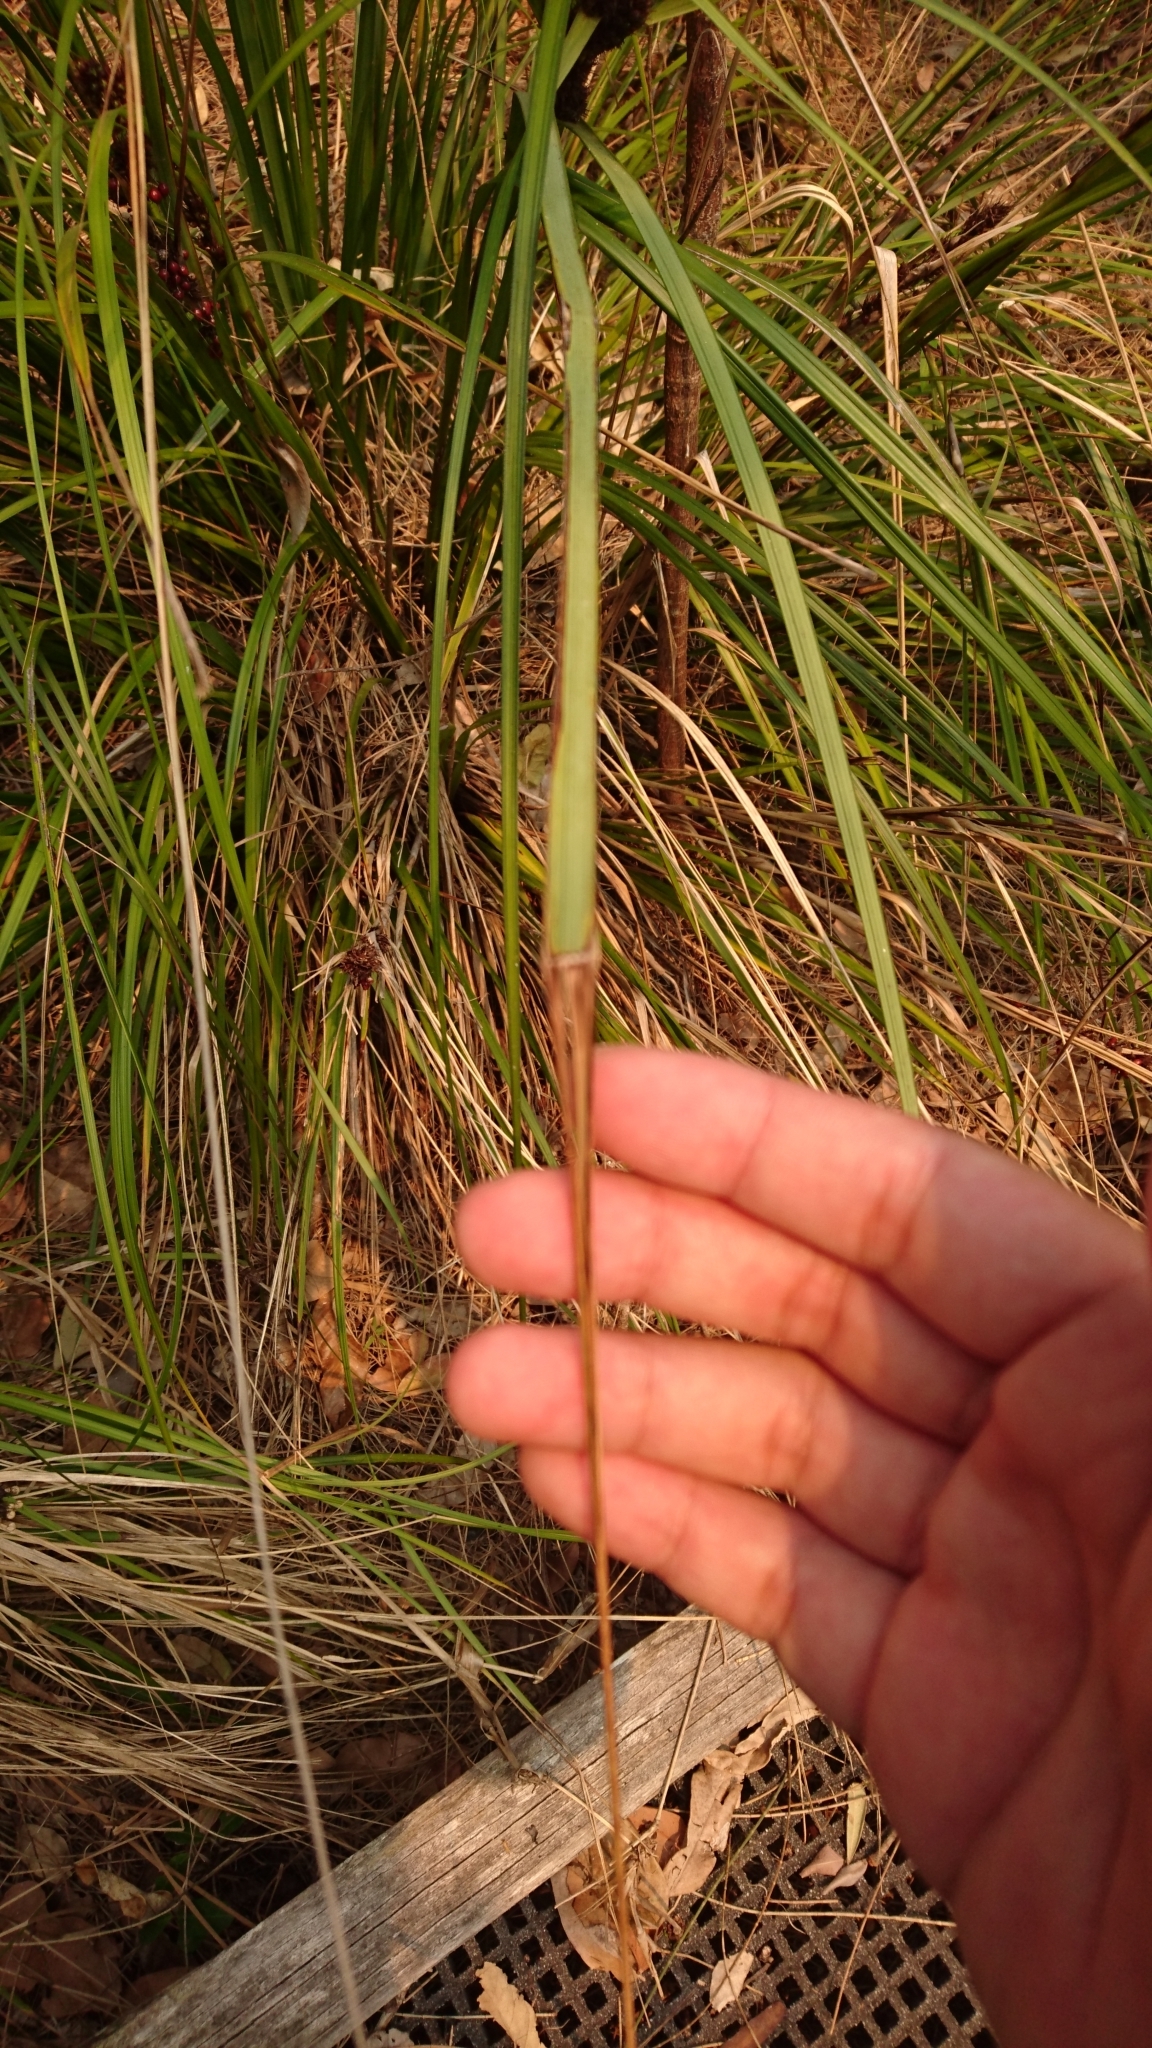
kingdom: Plantae
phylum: Tracheophyta
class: Liliopsida
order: Poales
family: Cyperaceae
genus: Gahnia
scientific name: Gahnia aspera
